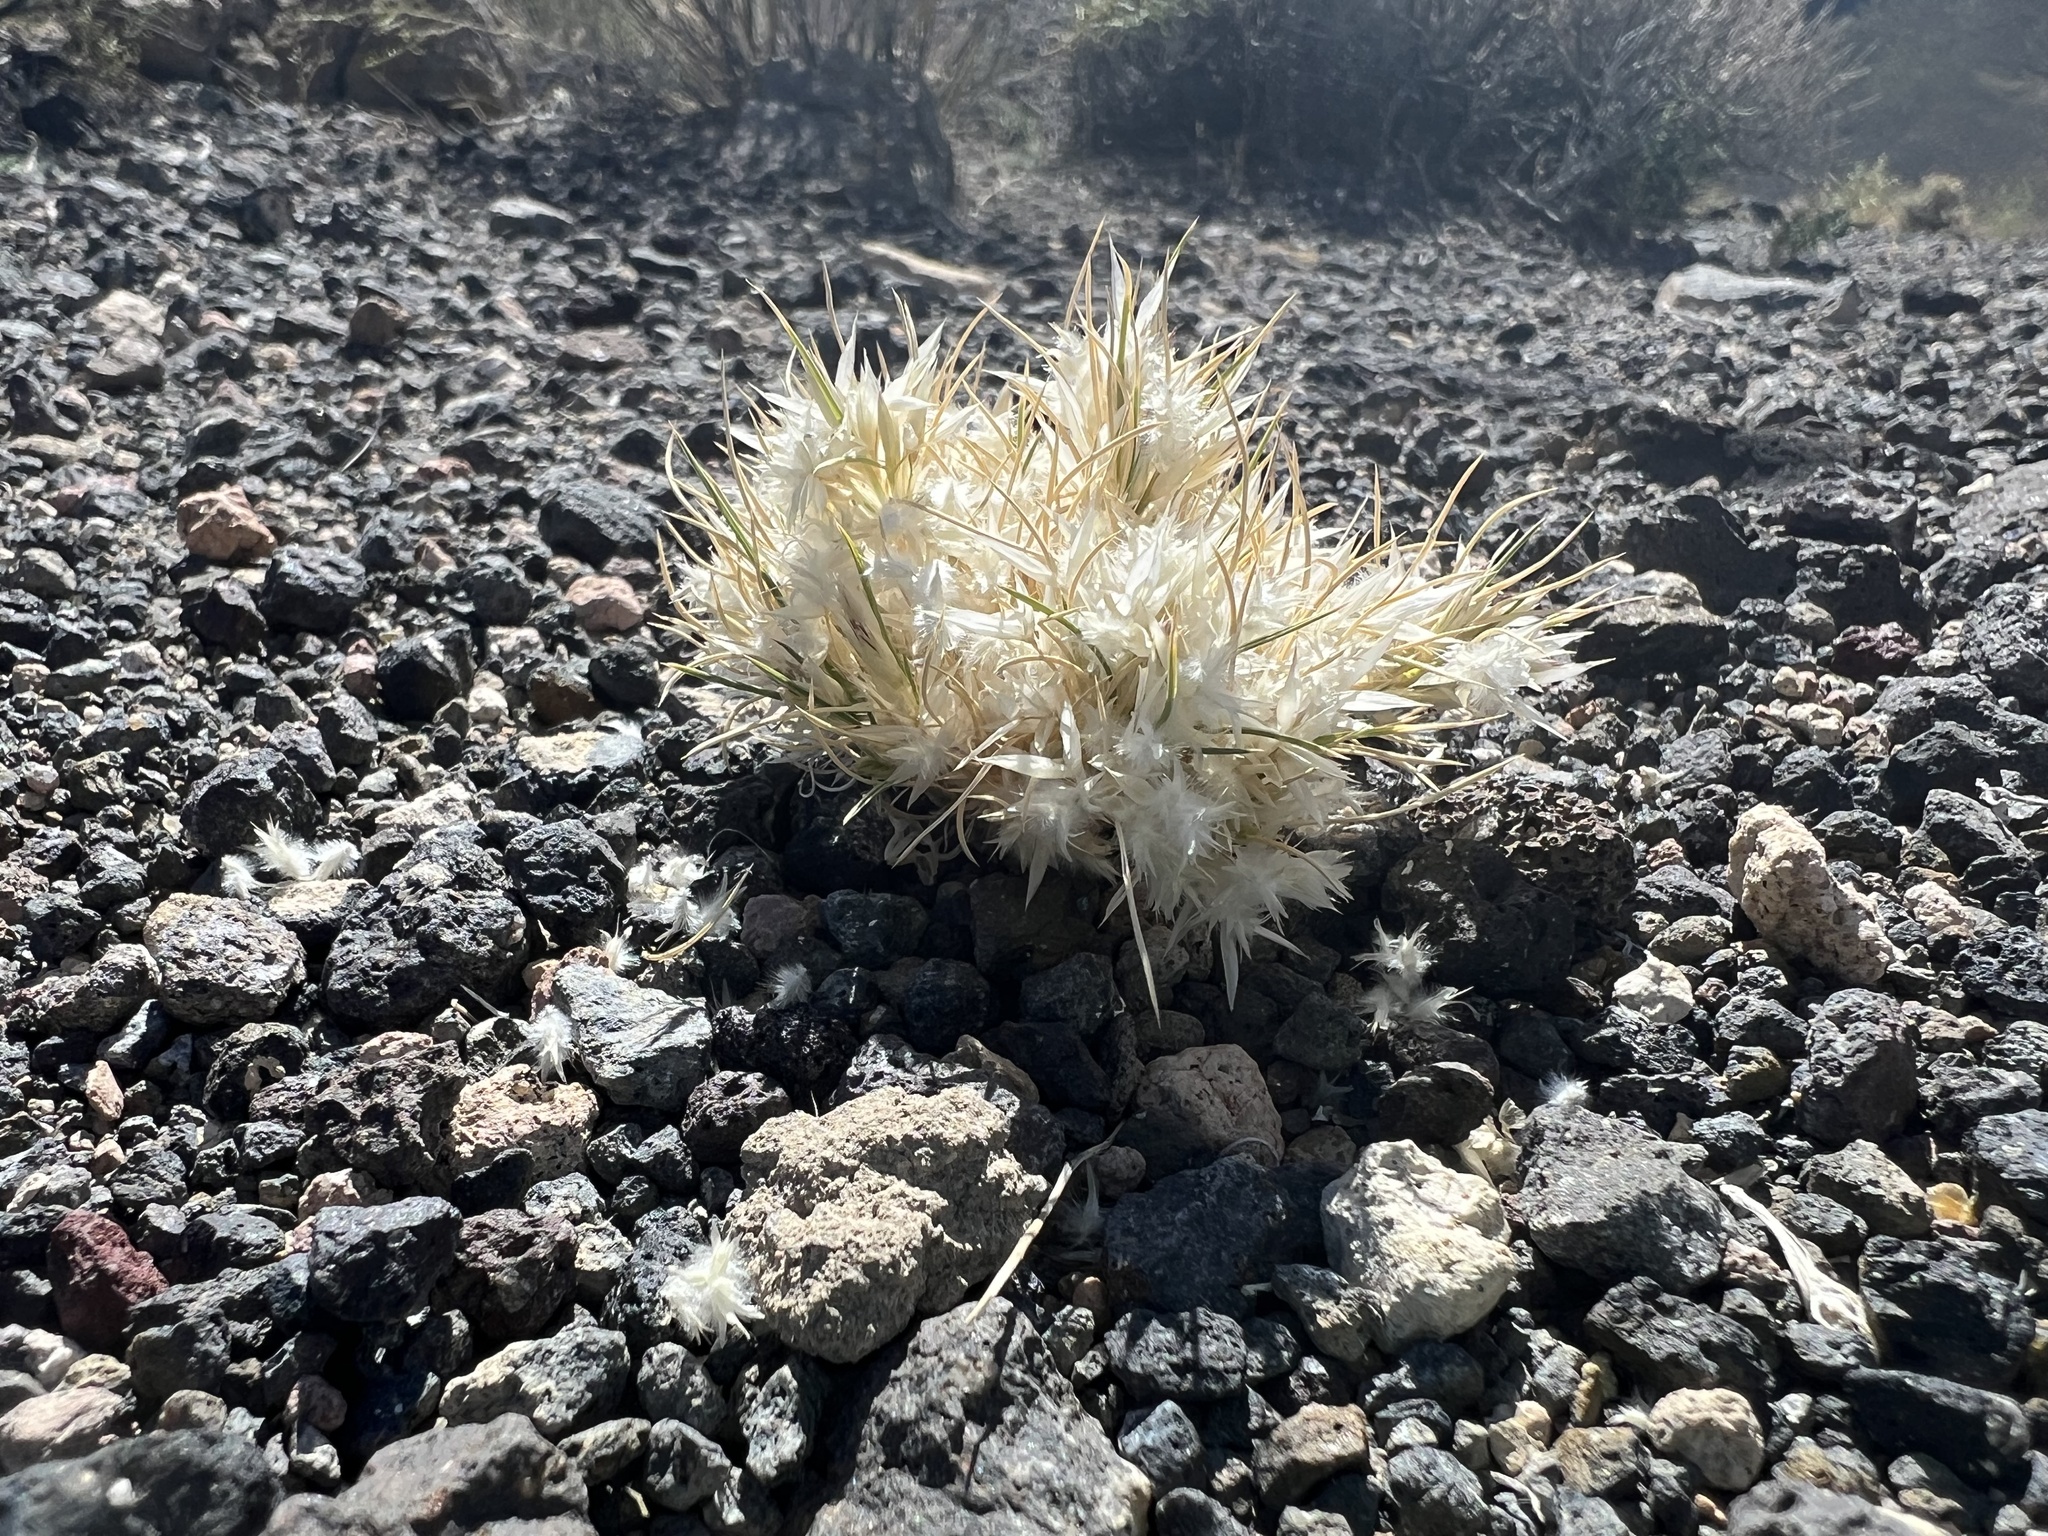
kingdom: Plantae
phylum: Tracheophyta
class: Liliopsida
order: Poales
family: Poaceae
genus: Dasyochloa
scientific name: Dasyochloa pulchella
